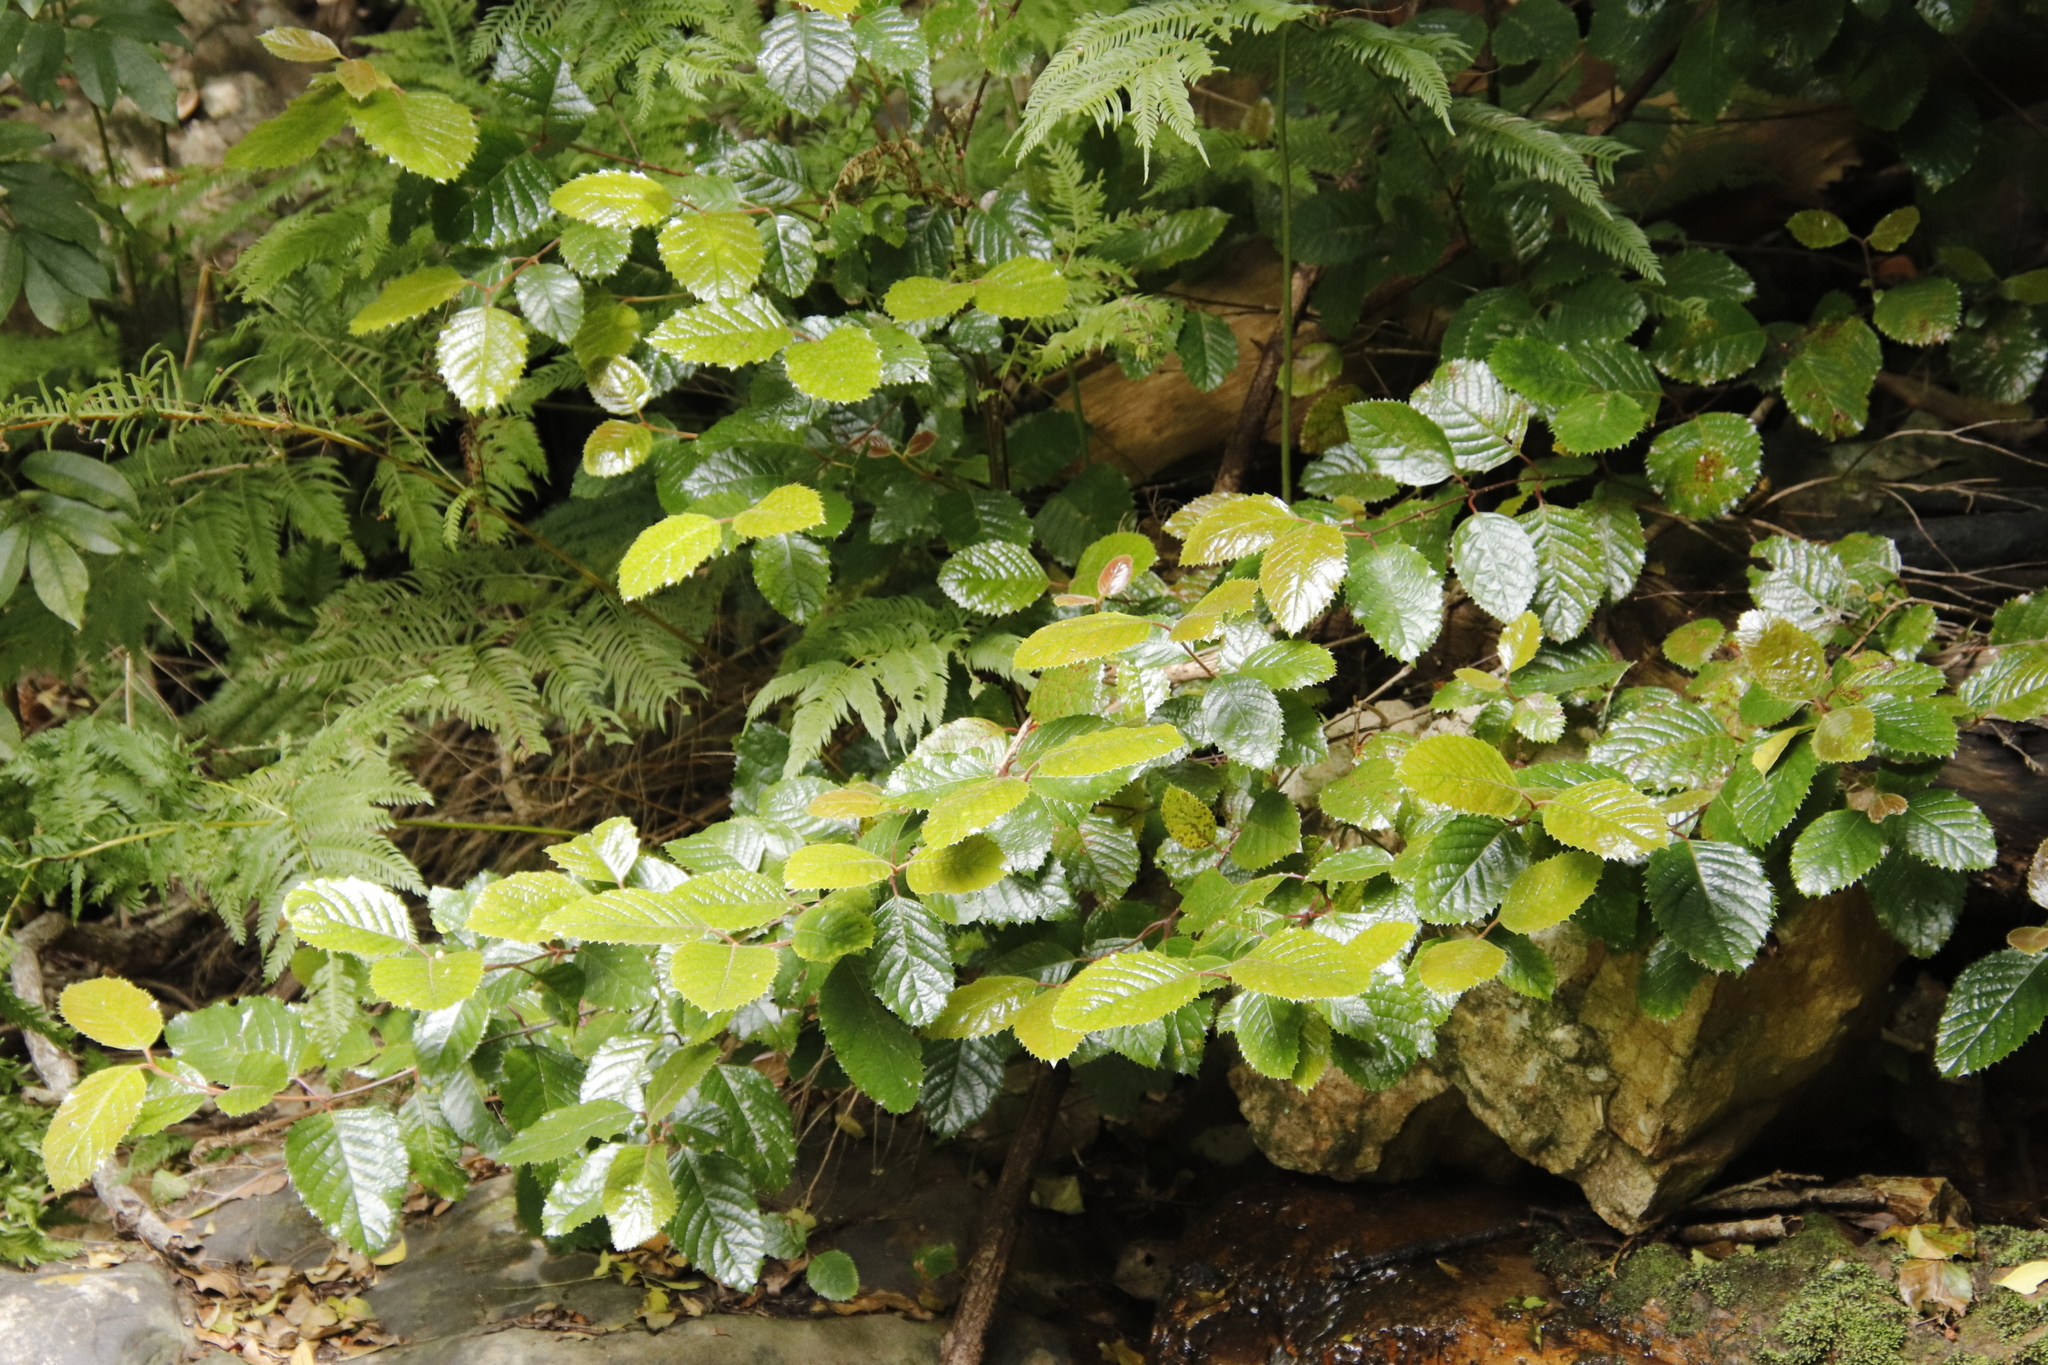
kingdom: Plantae
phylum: Tracheophyta
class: Magnoliopsida
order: Cornales
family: Curtisiaceae
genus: Curtisia
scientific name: Curtisia dentata
